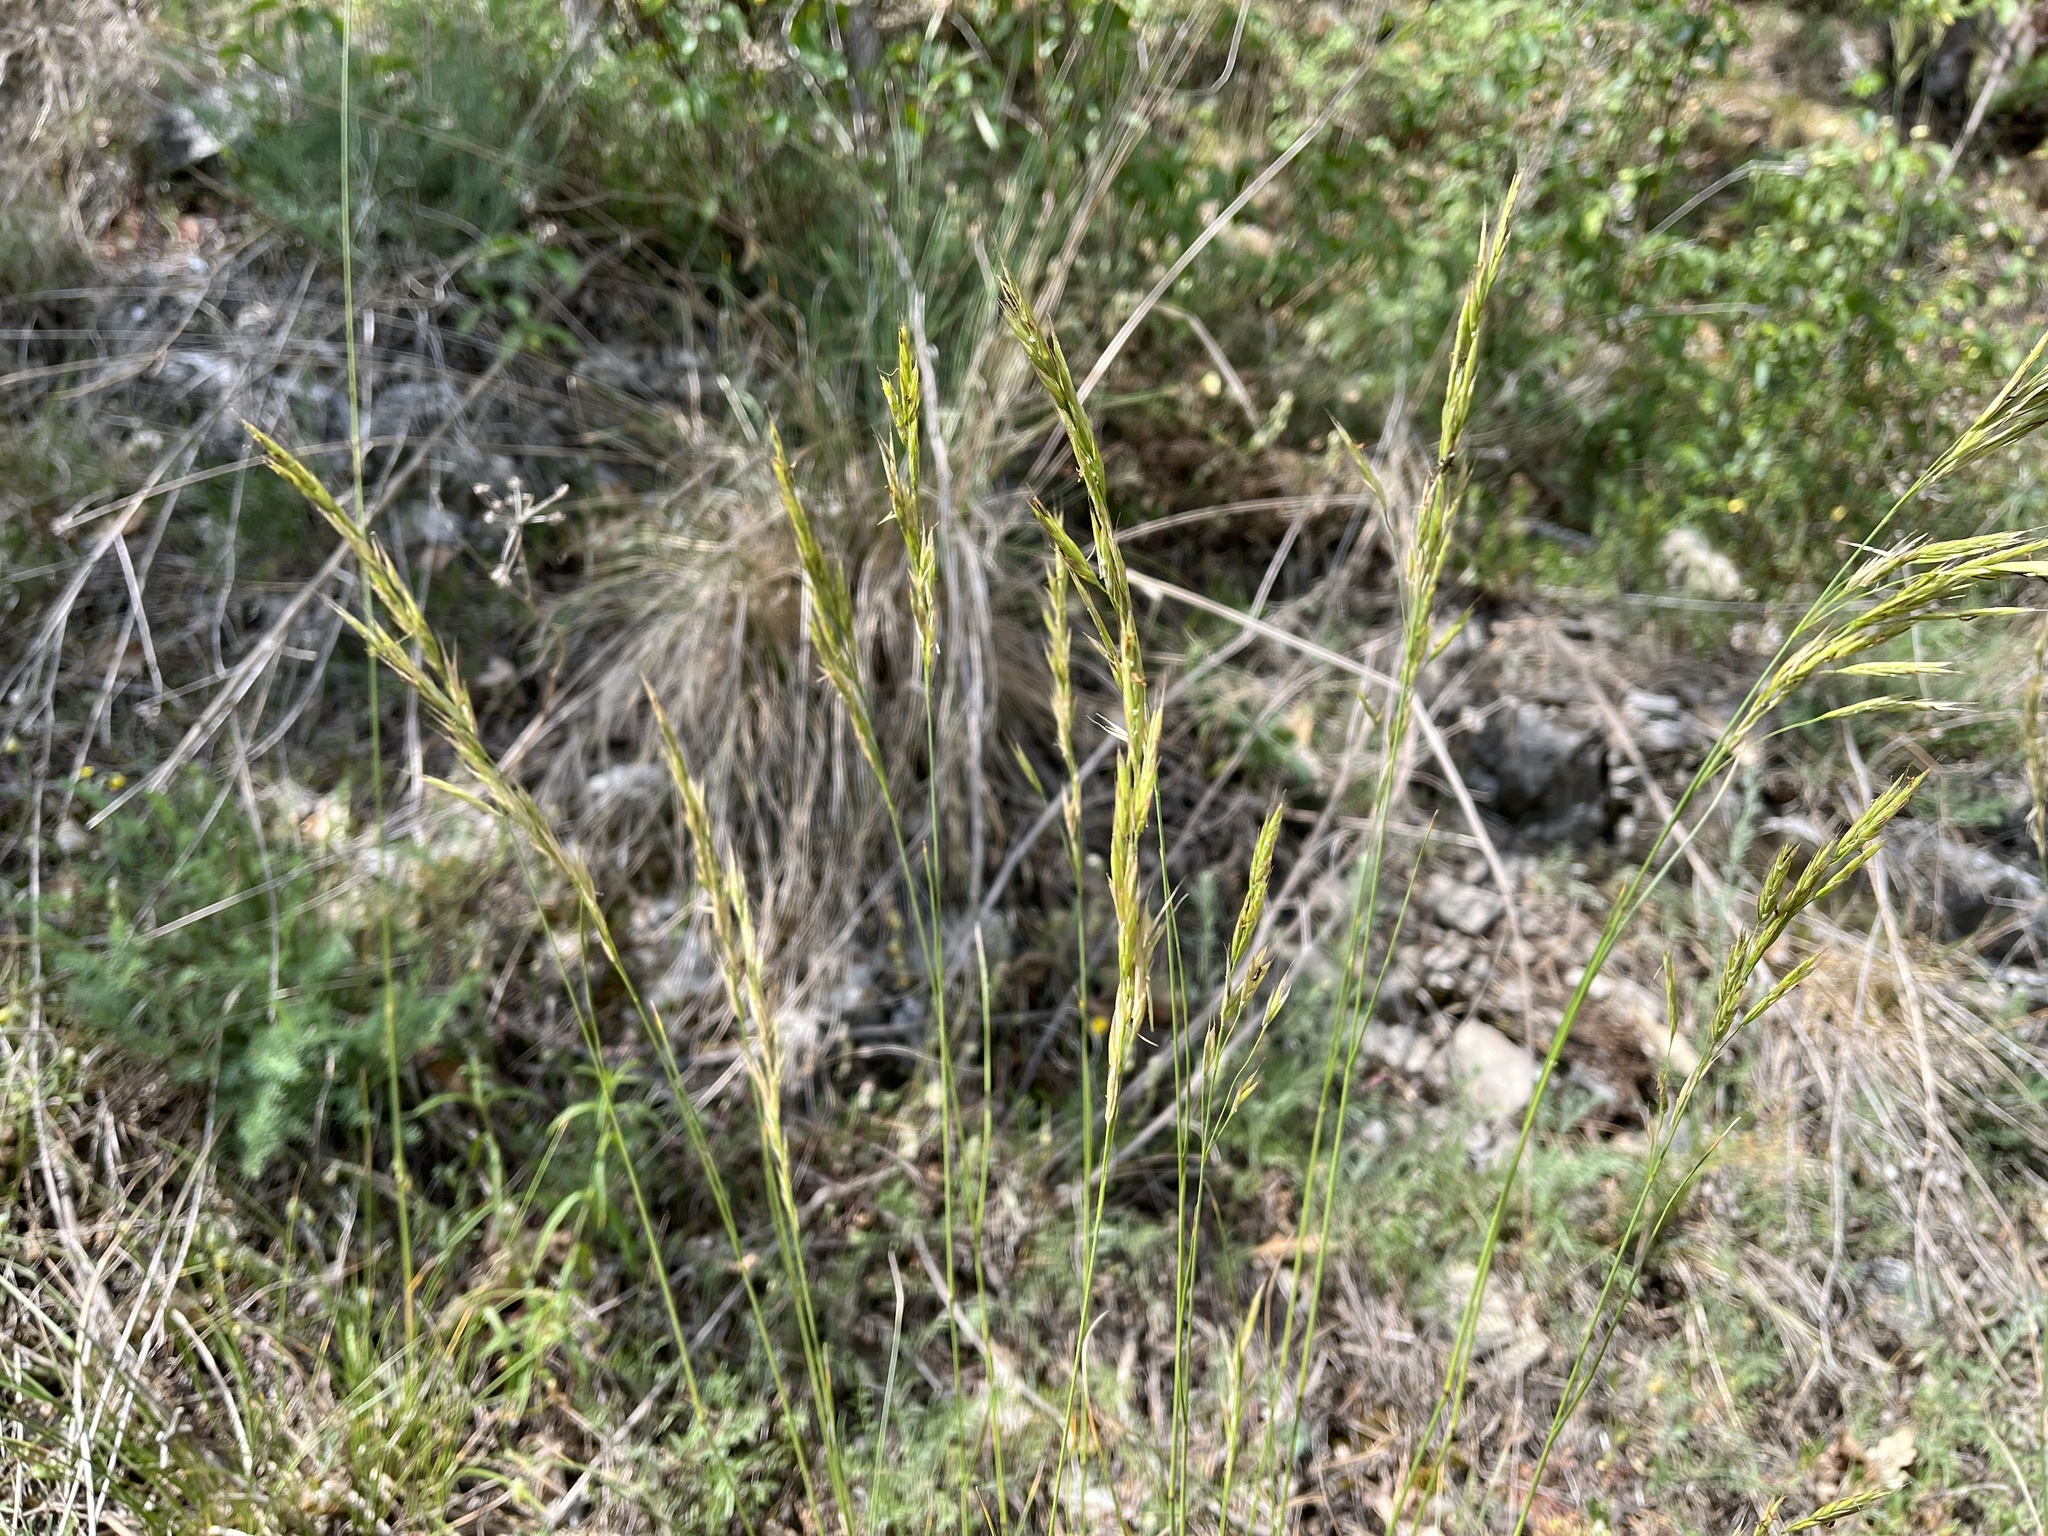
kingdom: Plantae
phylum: Tracheophyta
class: Liliopsida
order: Poales
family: Poaceae
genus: Bromus
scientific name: Bromus erectus
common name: Erect brome
